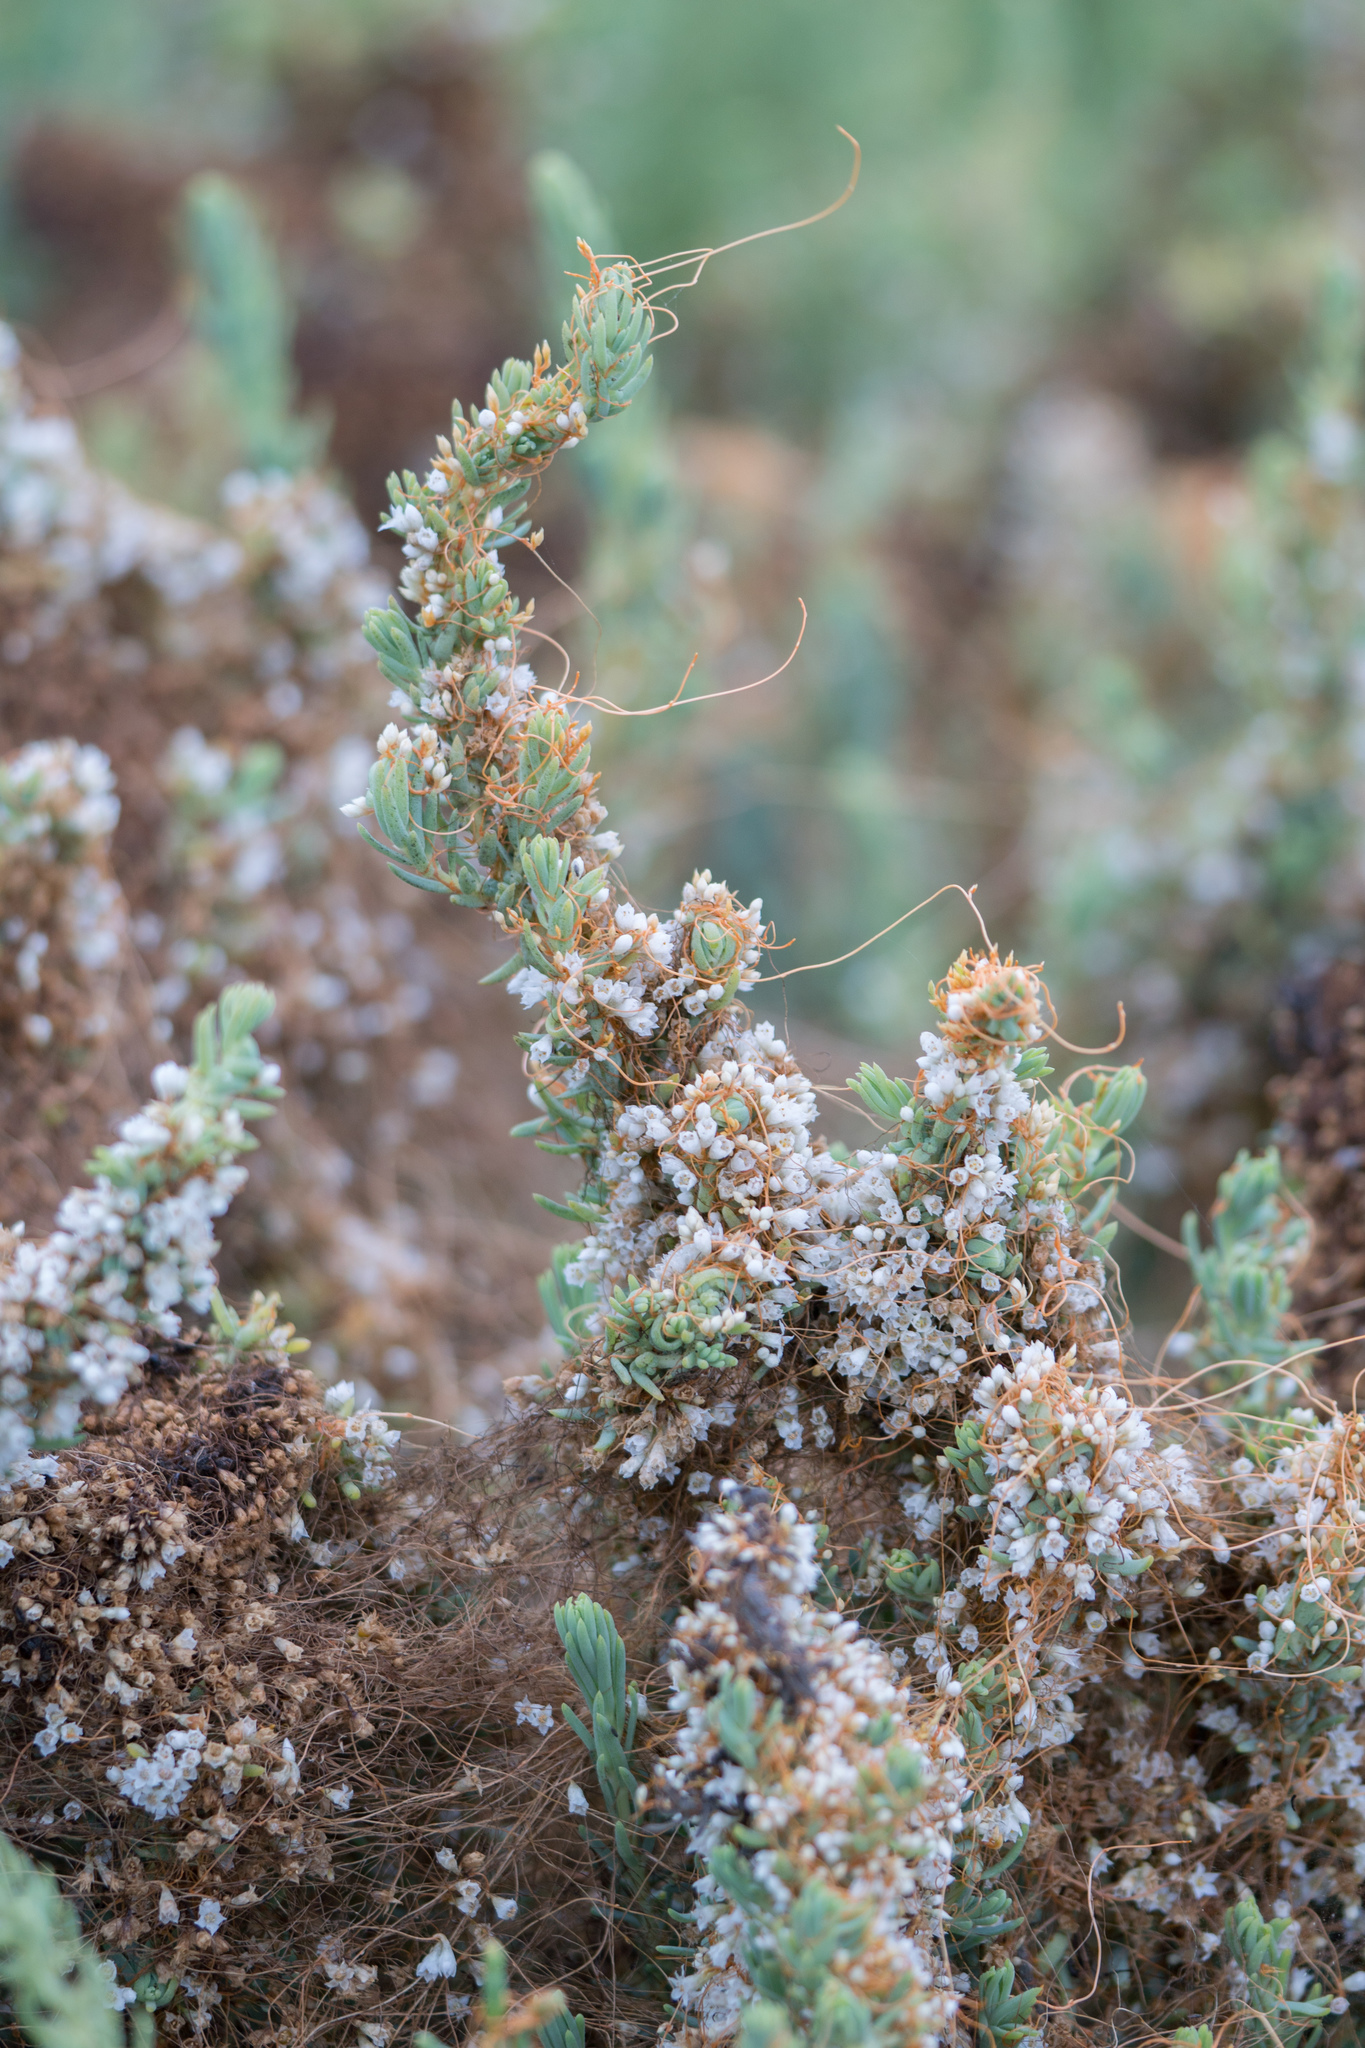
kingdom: Plantae
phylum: Tracheophyta
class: Magnoliopsida
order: Solanales
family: Convolvulaceae
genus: Cuscuta
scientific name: Cuscuta pacifica
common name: Large saltmarsh dodder
